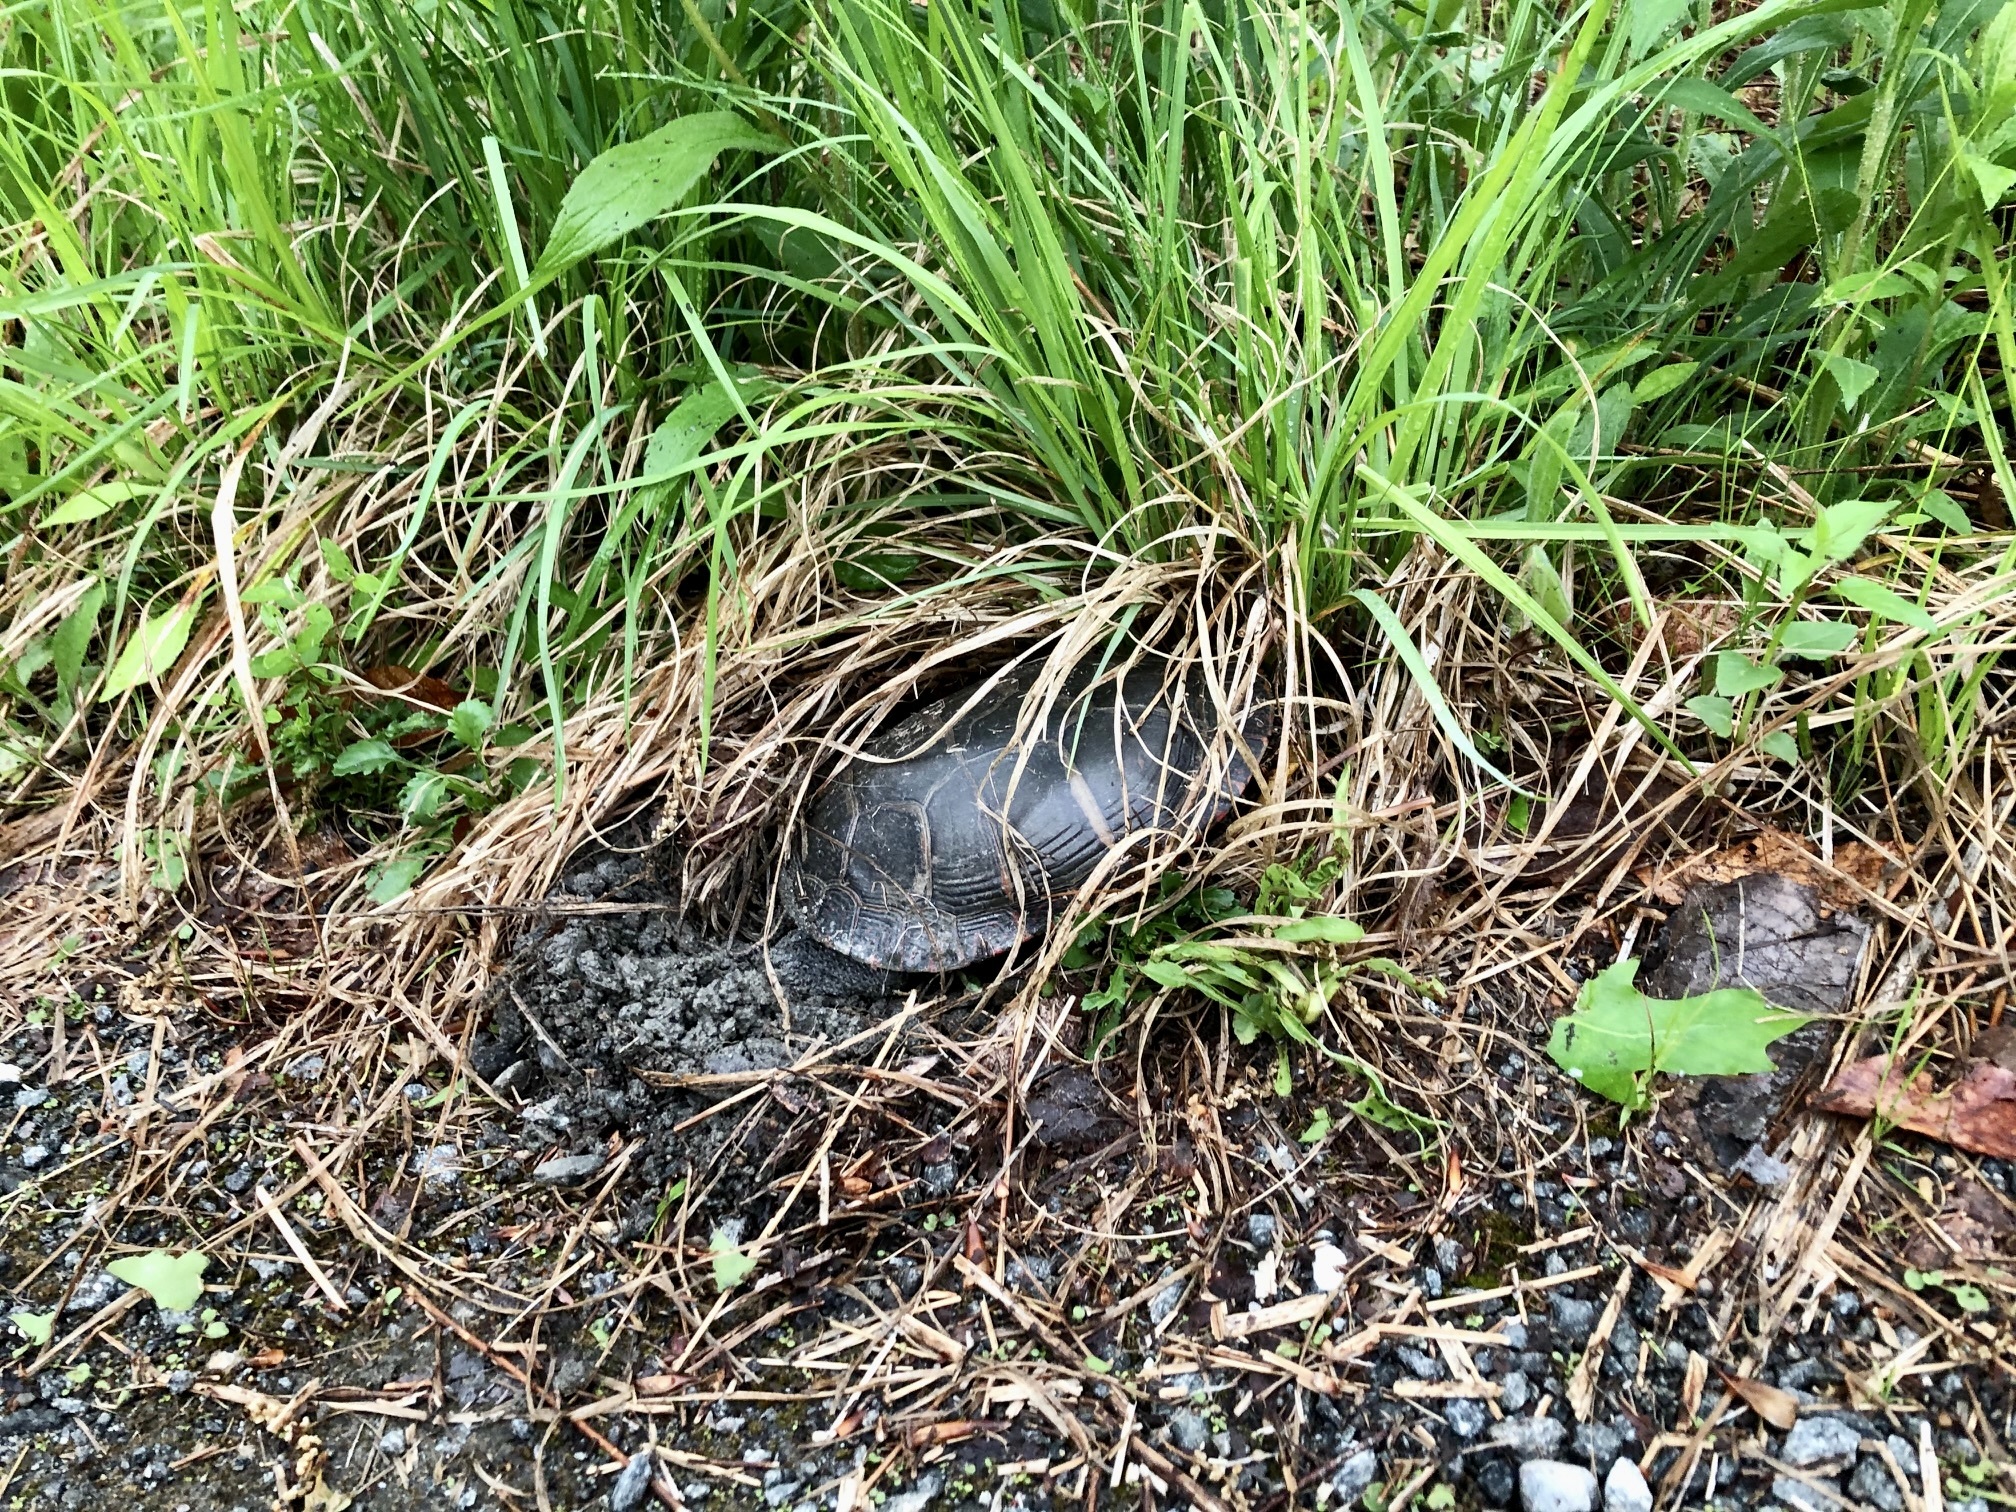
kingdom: Animalia
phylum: Chordata
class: Testudines
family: Emydidae
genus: Chrysemys
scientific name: Chrysemys picta
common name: Painted turtle
